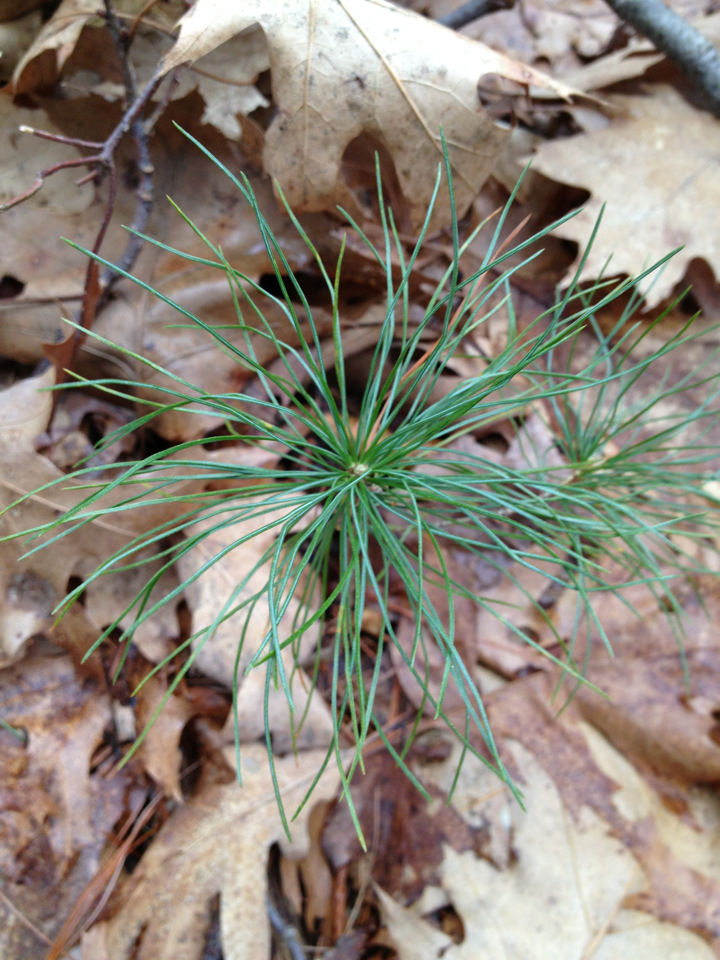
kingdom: Plantae
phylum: Tracheophyta
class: Pinopsida
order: Pinales
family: Pinaceae
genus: Pinus
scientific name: Pinus strobus
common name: Weymouth pine
